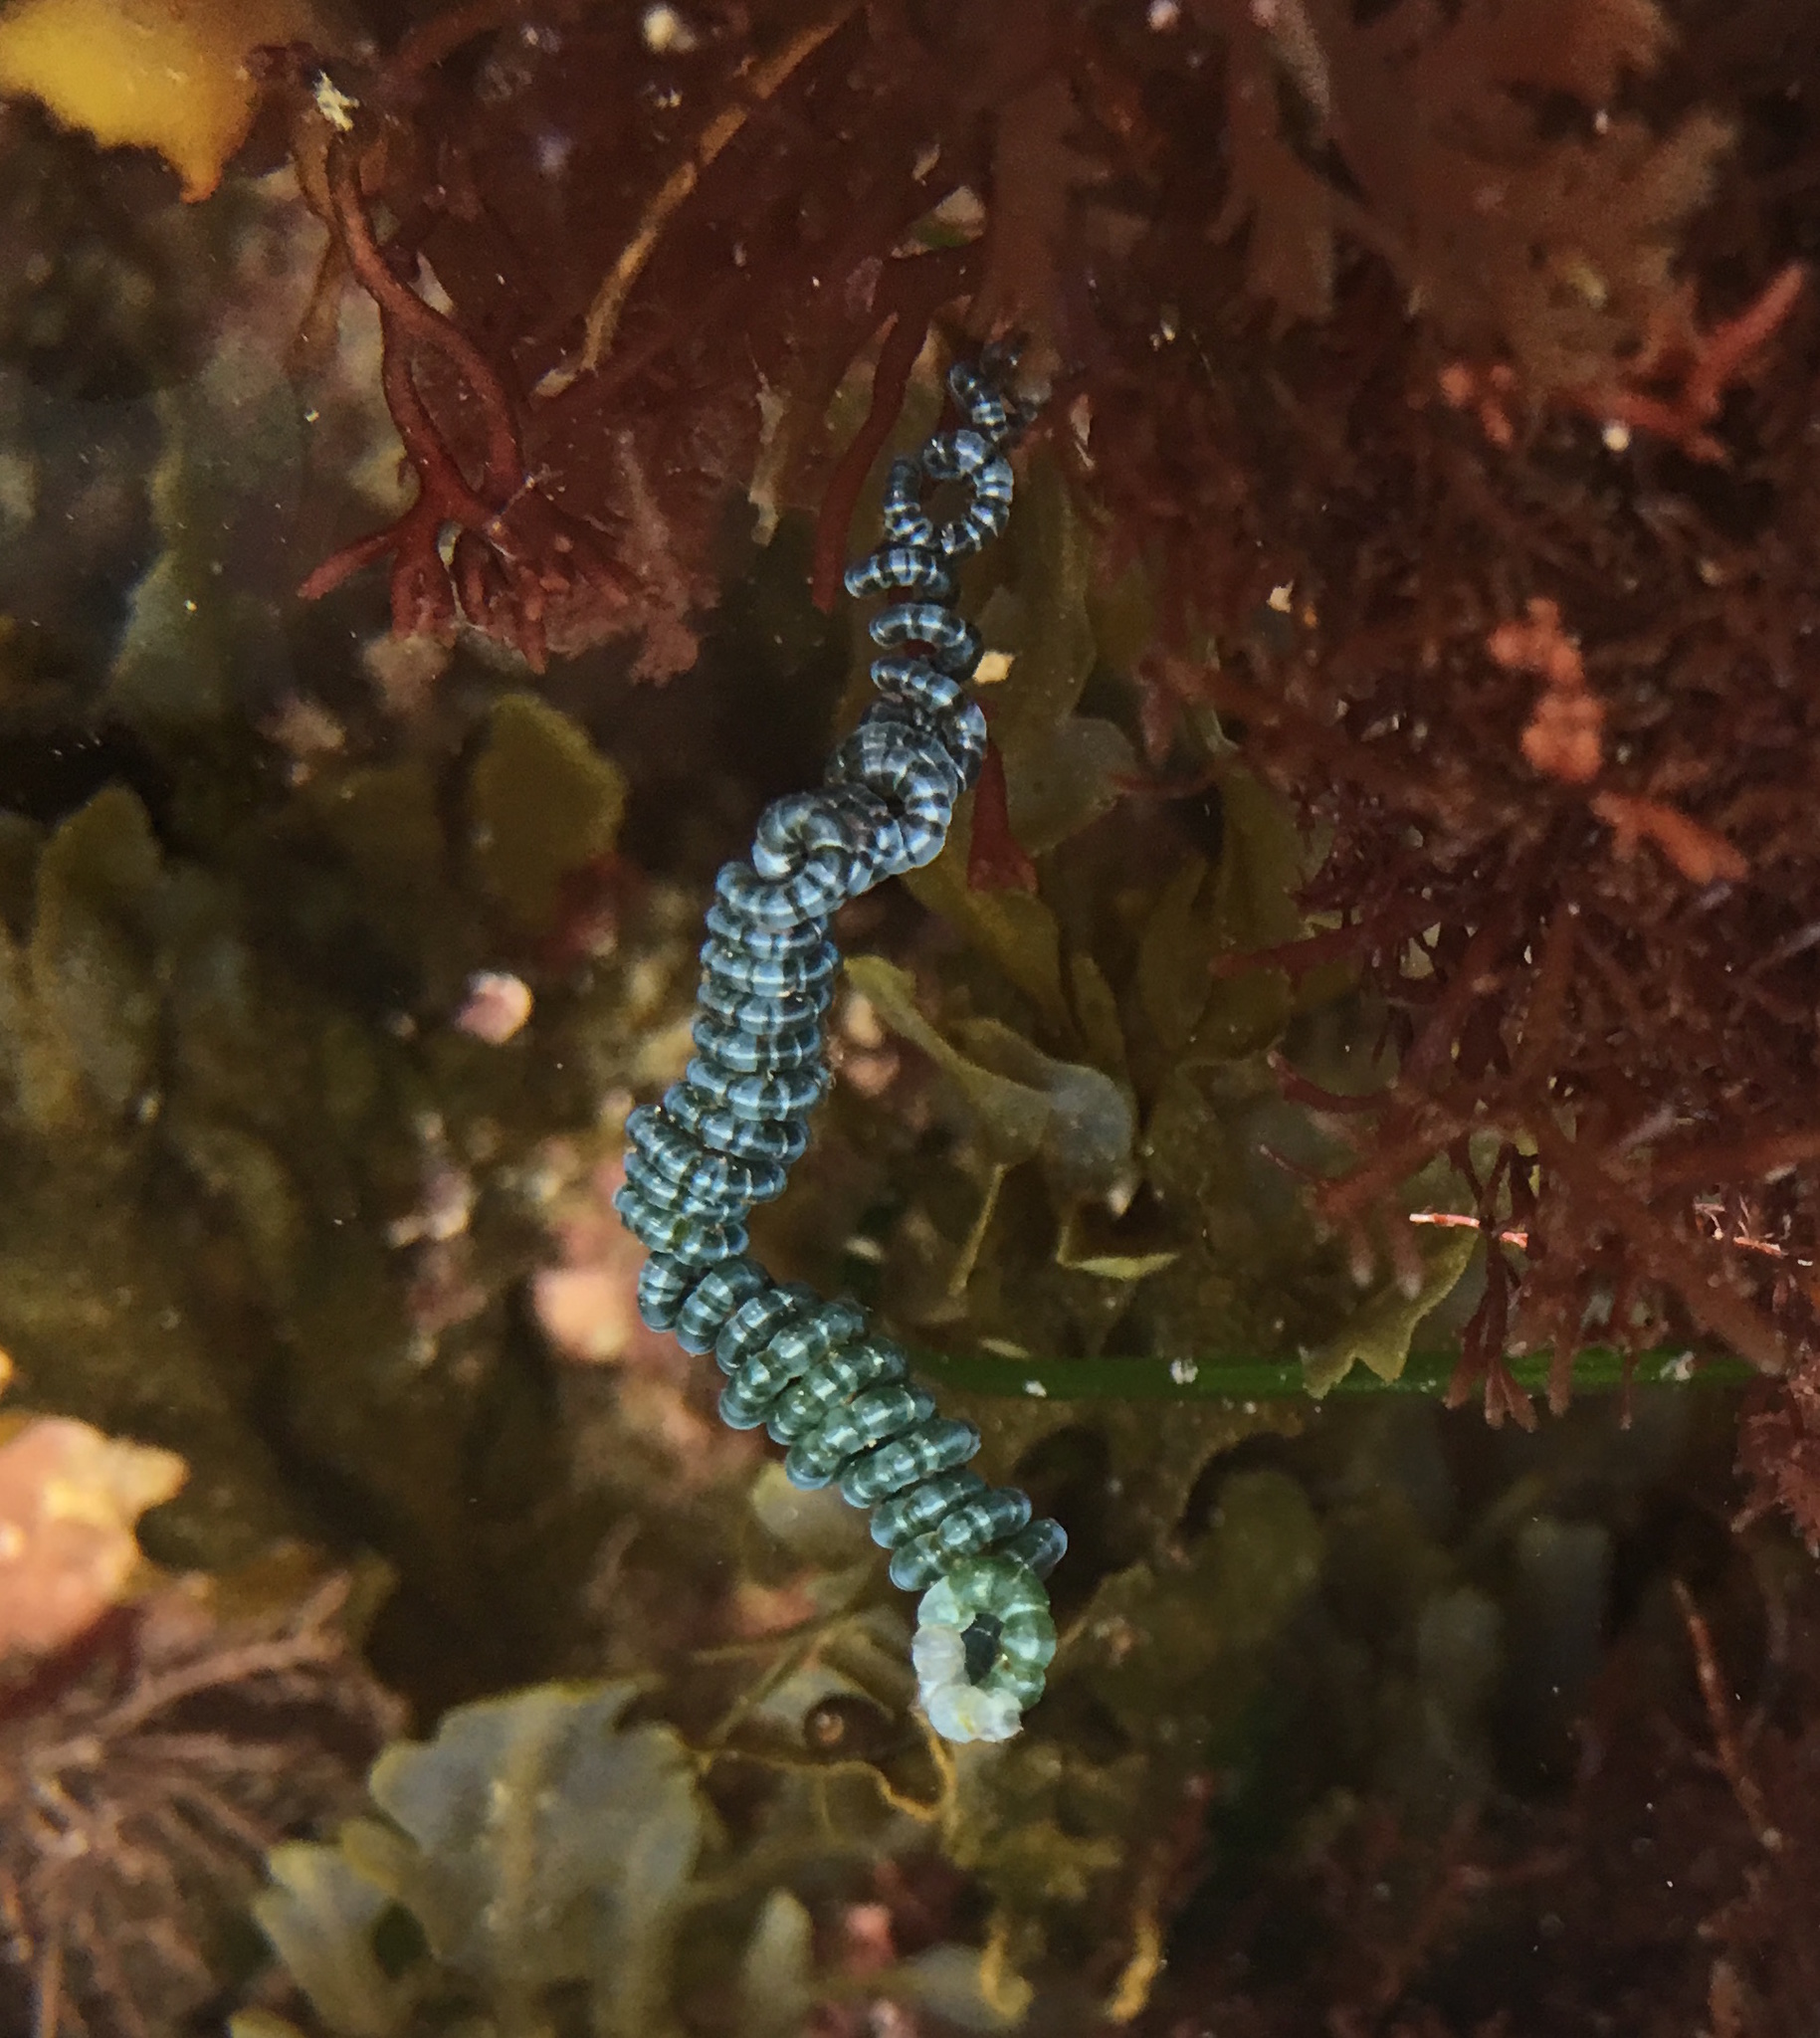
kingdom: Plantae
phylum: Chlorophyta
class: Ulvophyceae
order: Cladophorales
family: Cladophoraceae
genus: Chaetomorpha
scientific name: Chaetomorpha spiralis
